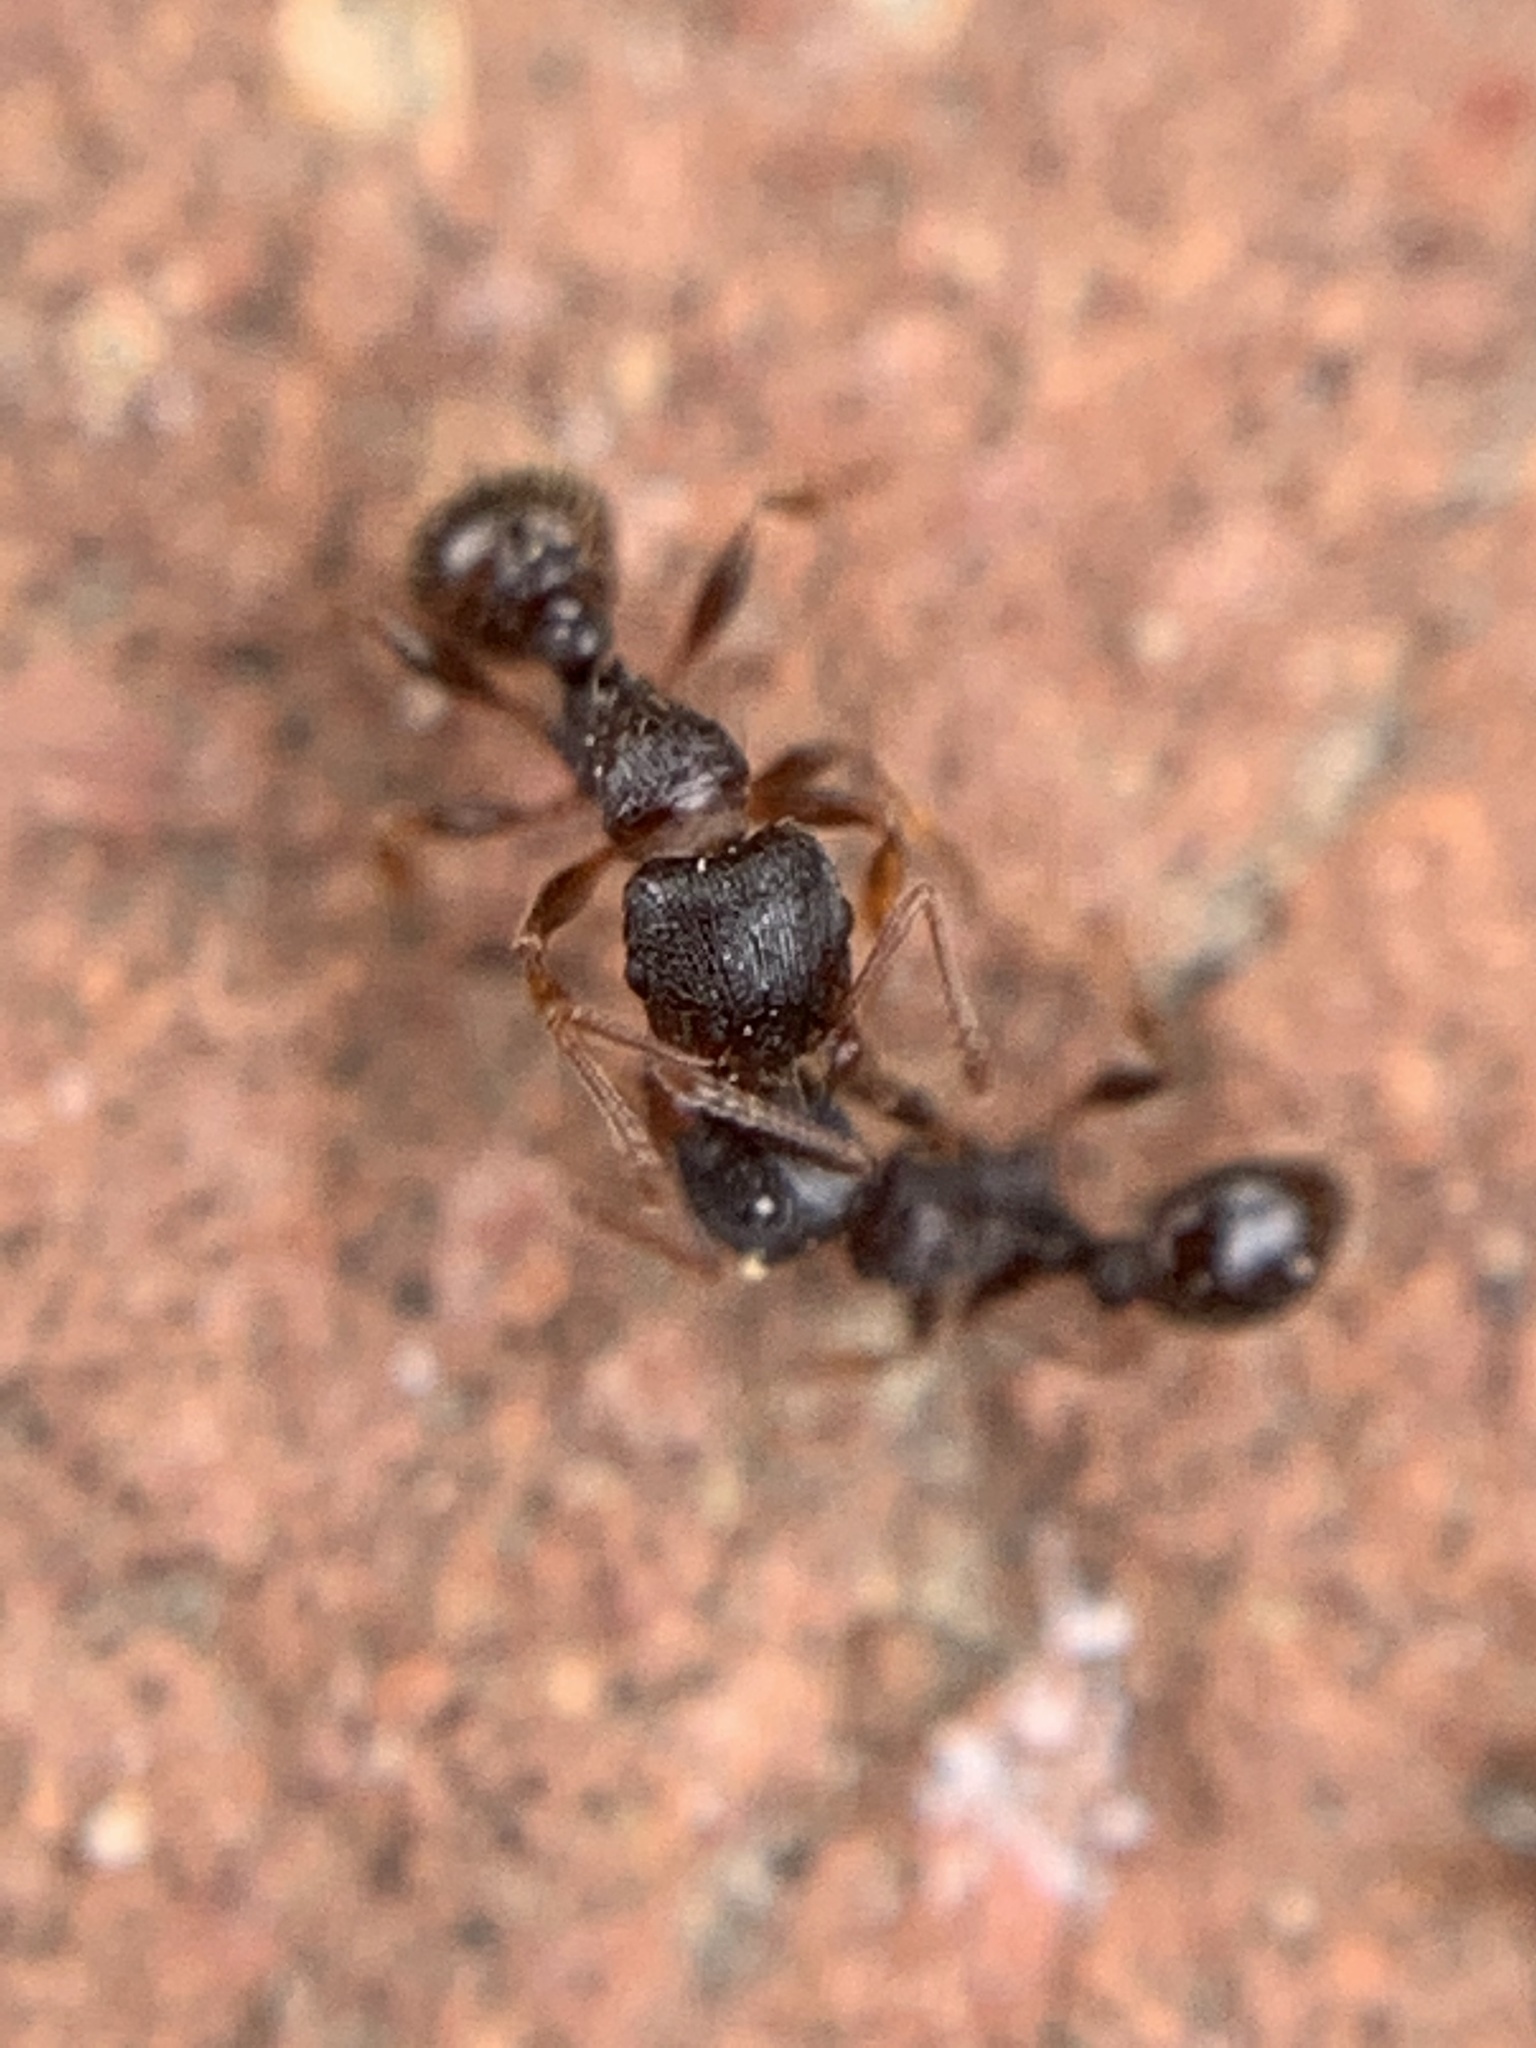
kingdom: Animalia
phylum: Arthropoda
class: Insecta
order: Hymenoptera
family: Formicidae
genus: Tetramorium
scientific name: Tetramorium immigrans
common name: Pavement ant
